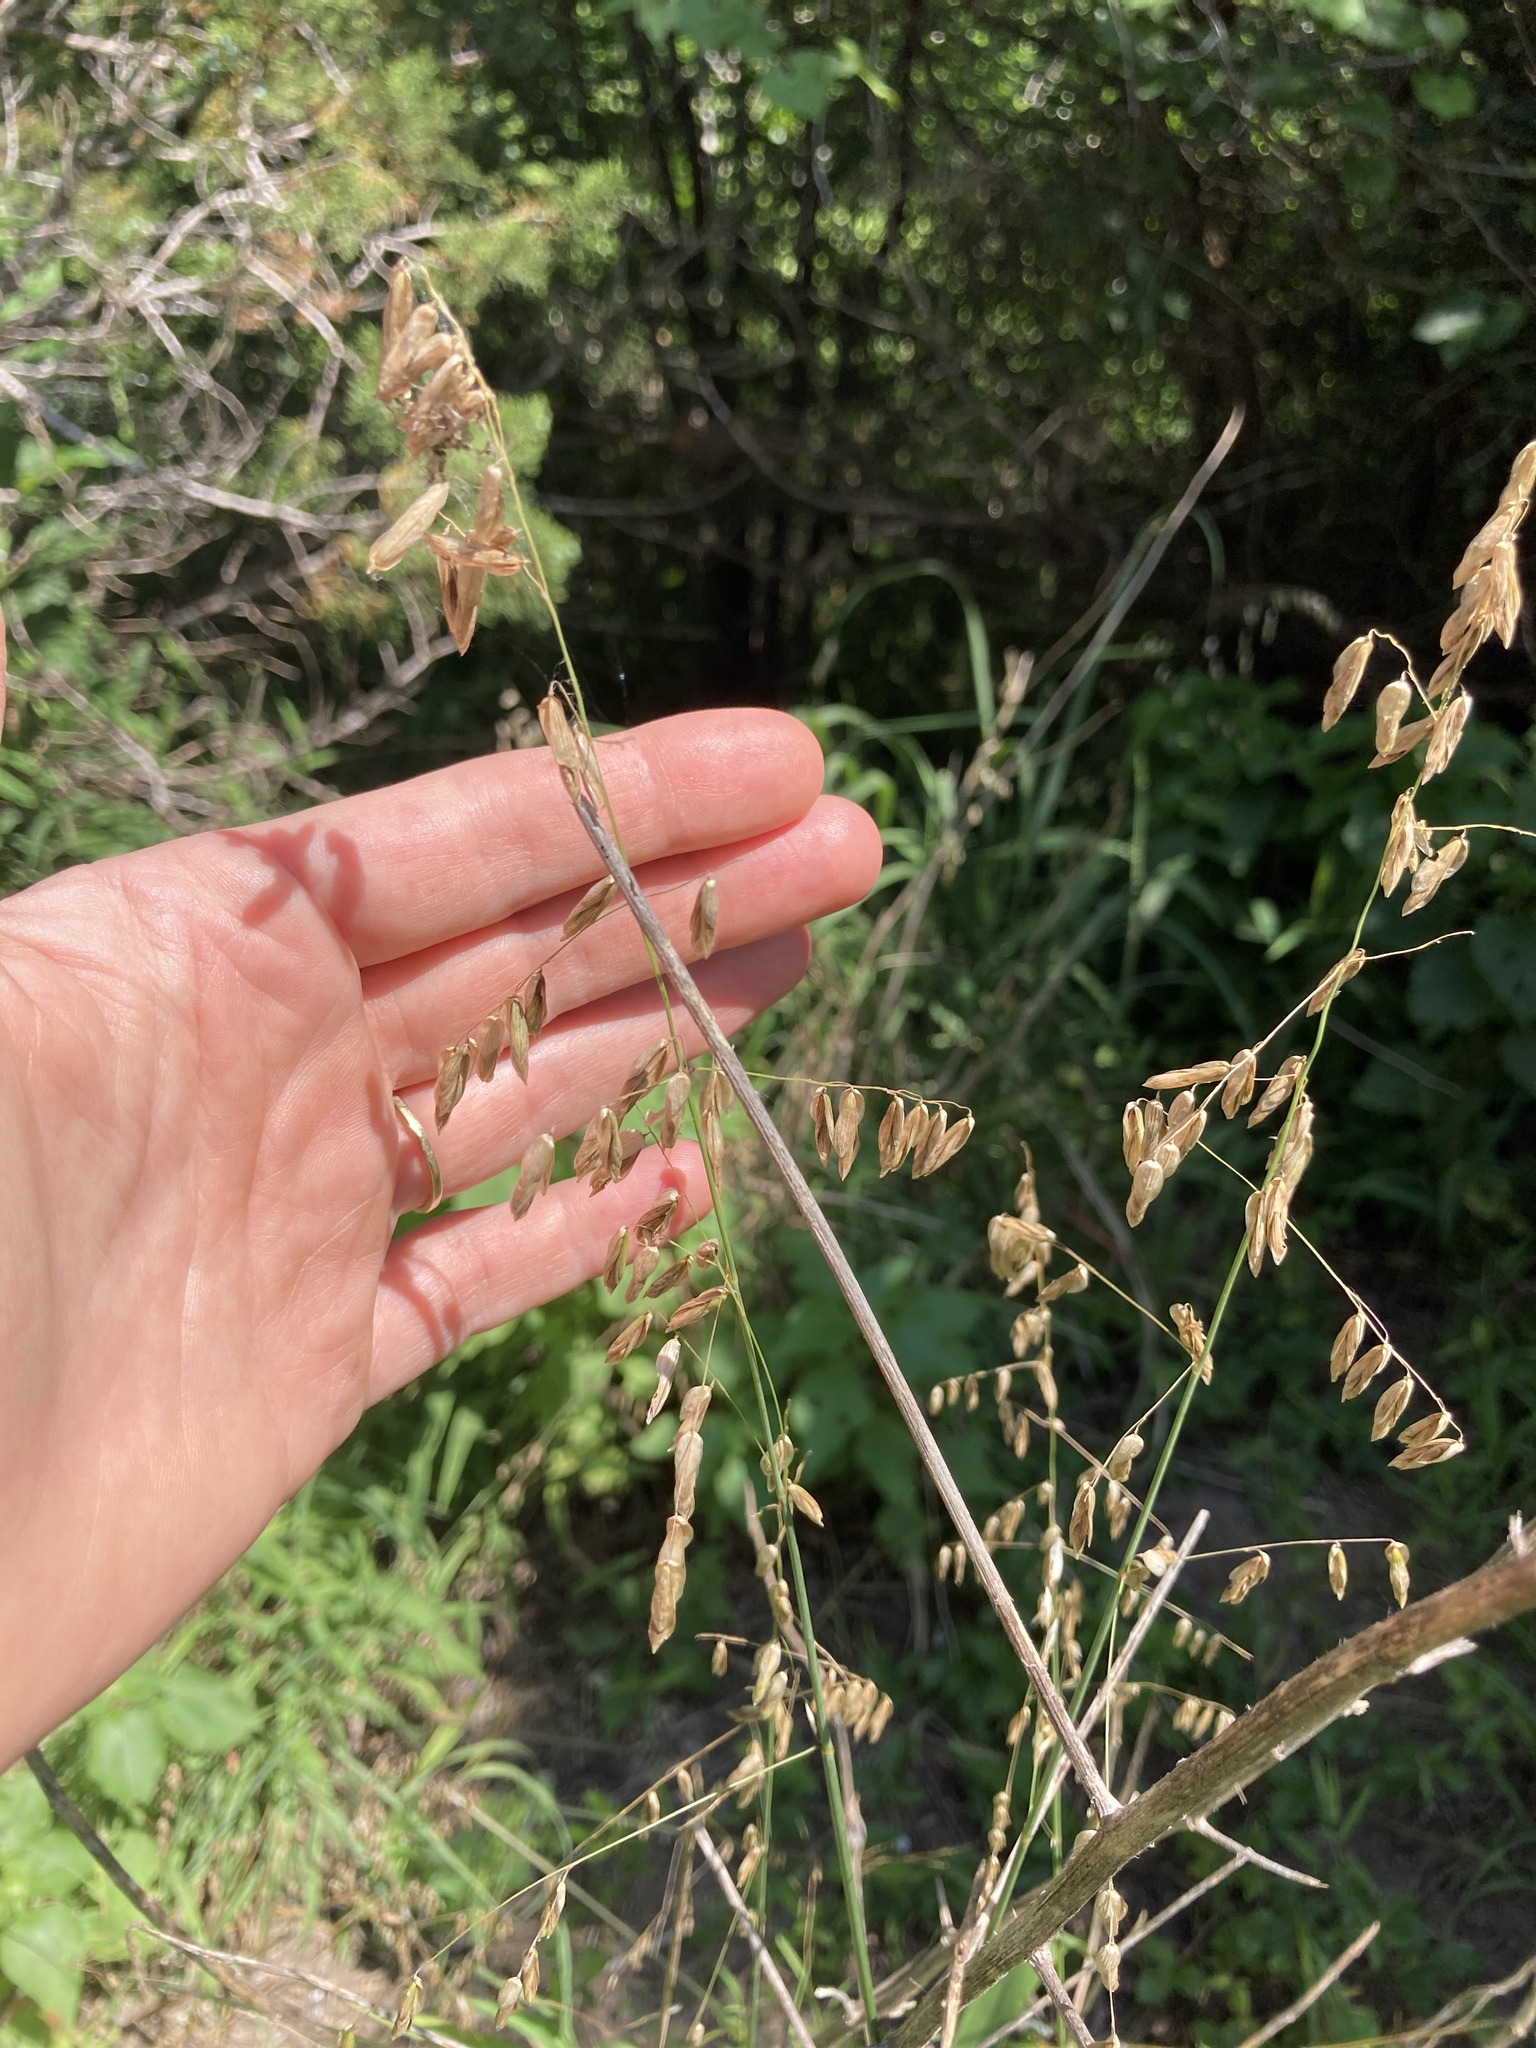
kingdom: Plantae
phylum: Tracheophyta
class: Liliopsida
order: Poales
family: Poaceae
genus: Melica
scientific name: Melica nitens
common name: Three-flower melic
